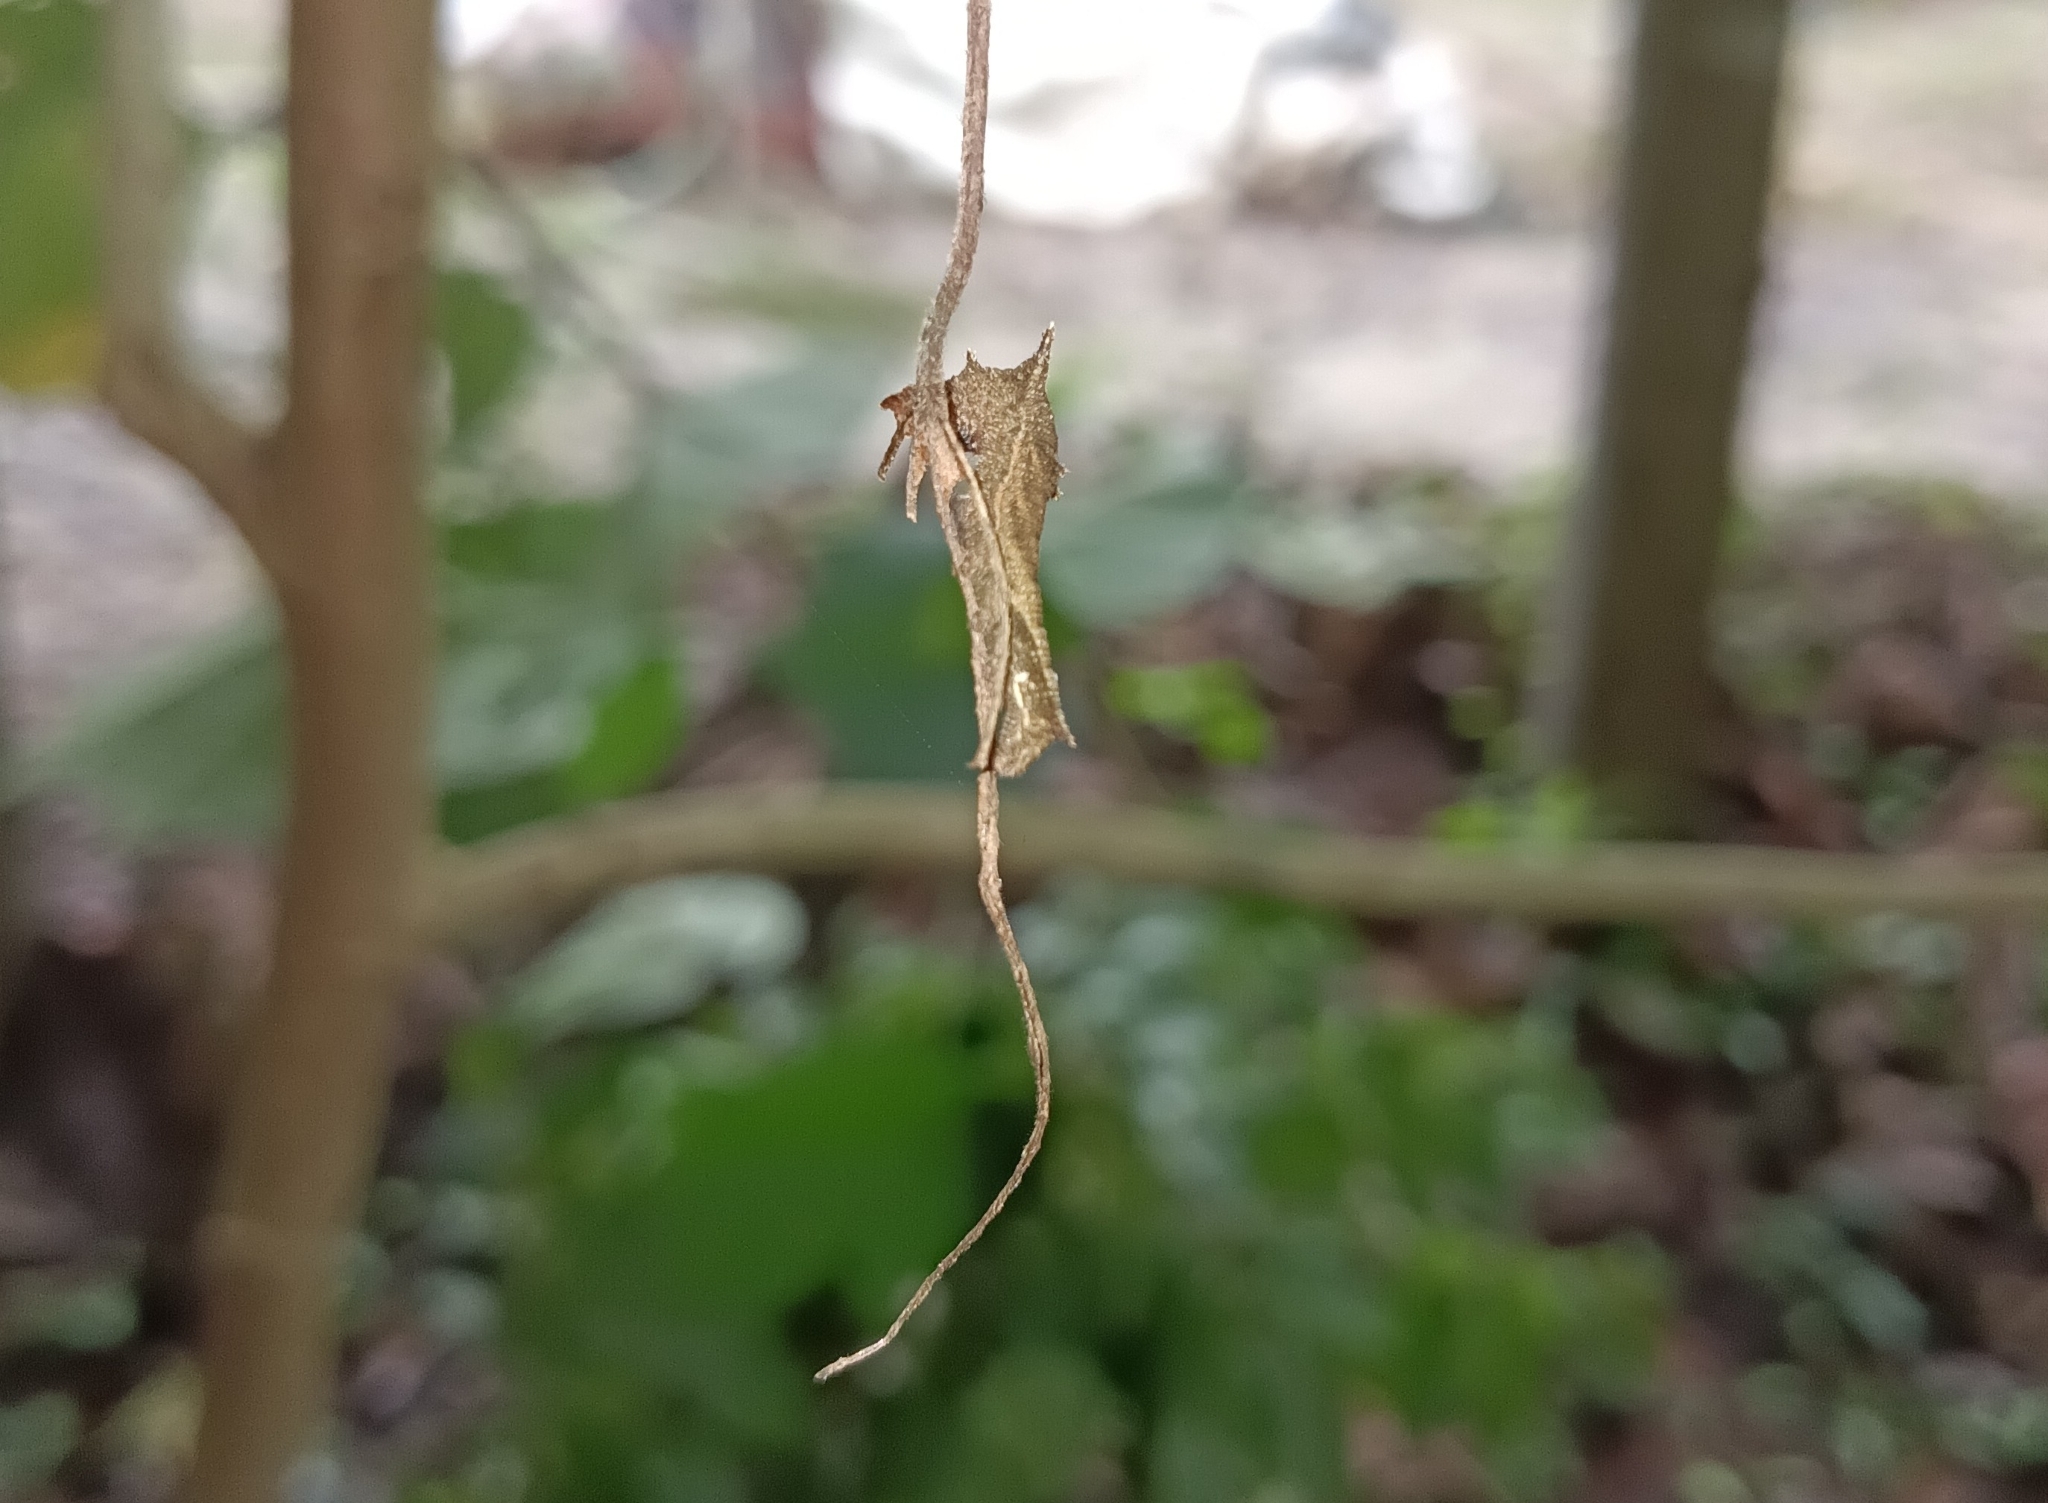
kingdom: Animalia
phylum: Arthropoda
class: Insecta
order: Lepidoptera
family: Nymphalidae
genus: Neptis
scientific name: Neptis jumbah
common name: Chestnut-streaked sailer
